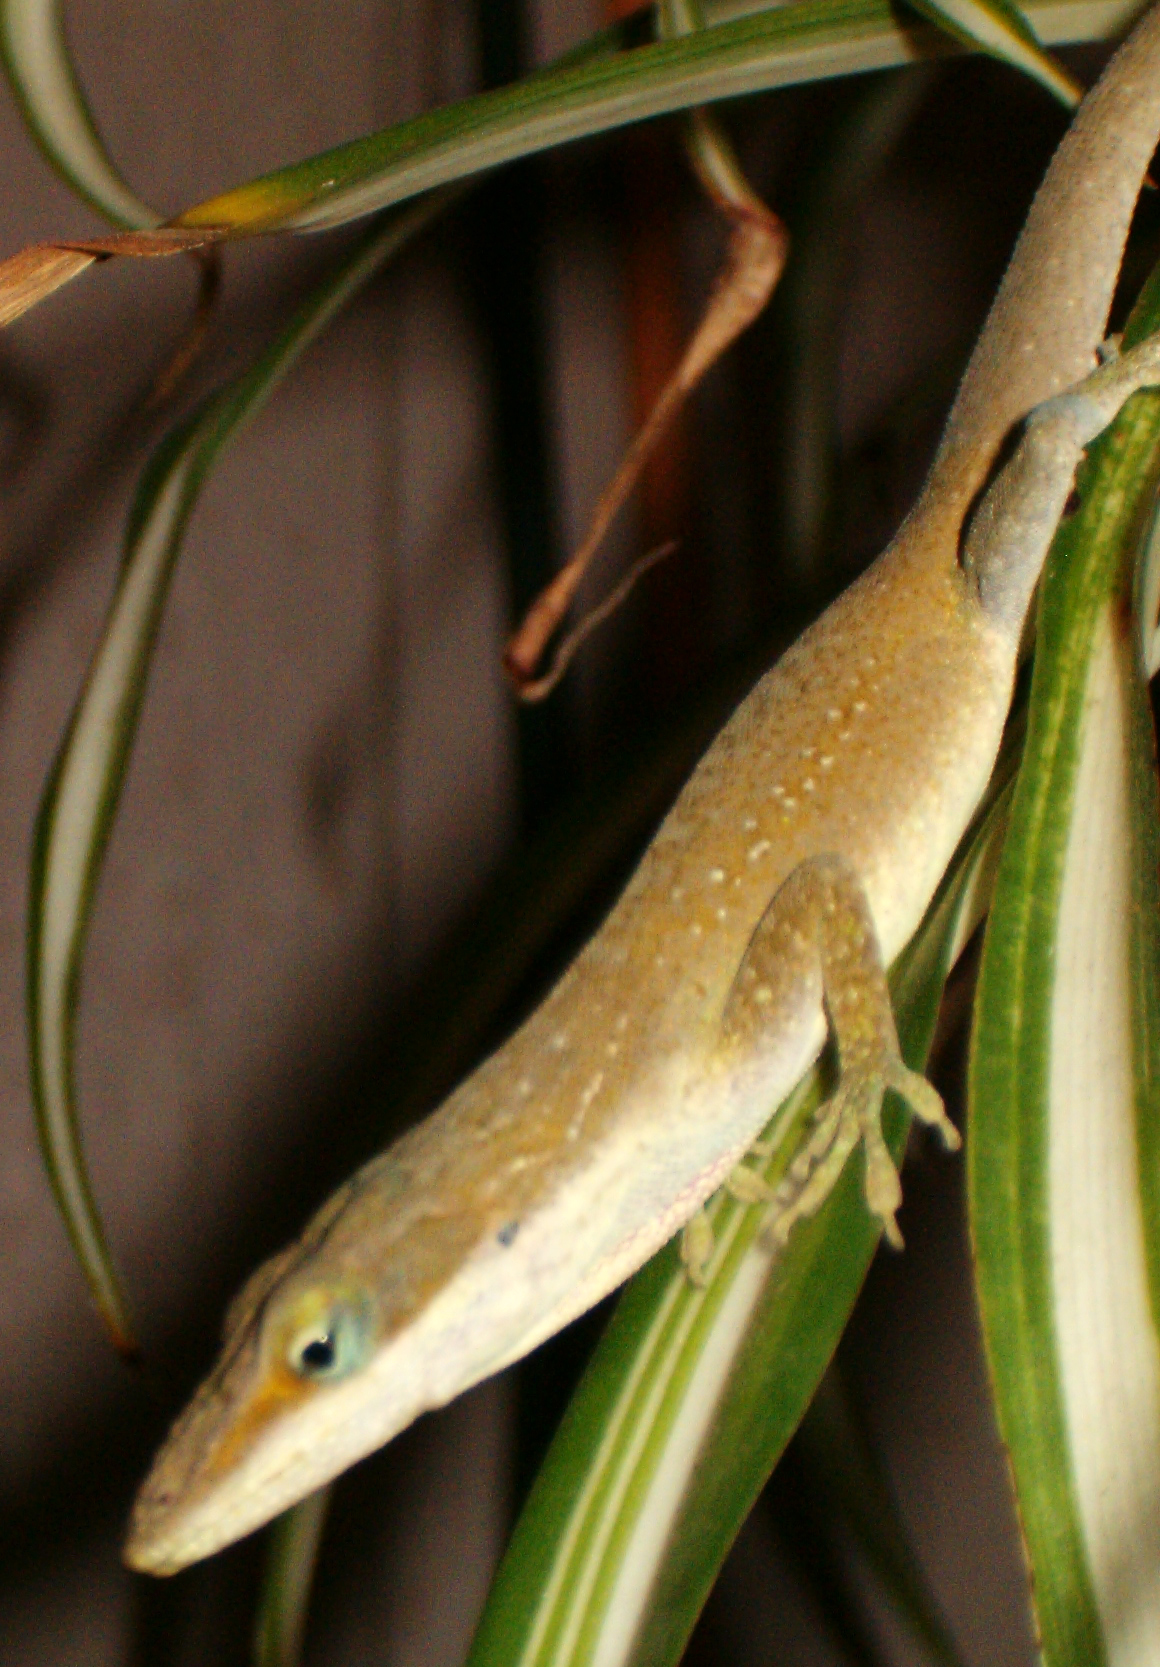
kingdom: Animalia
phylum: Chordata
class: Squamata
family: Dactyloidae
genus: Anolis
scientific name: Anolis carolinensis
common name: Green anole
